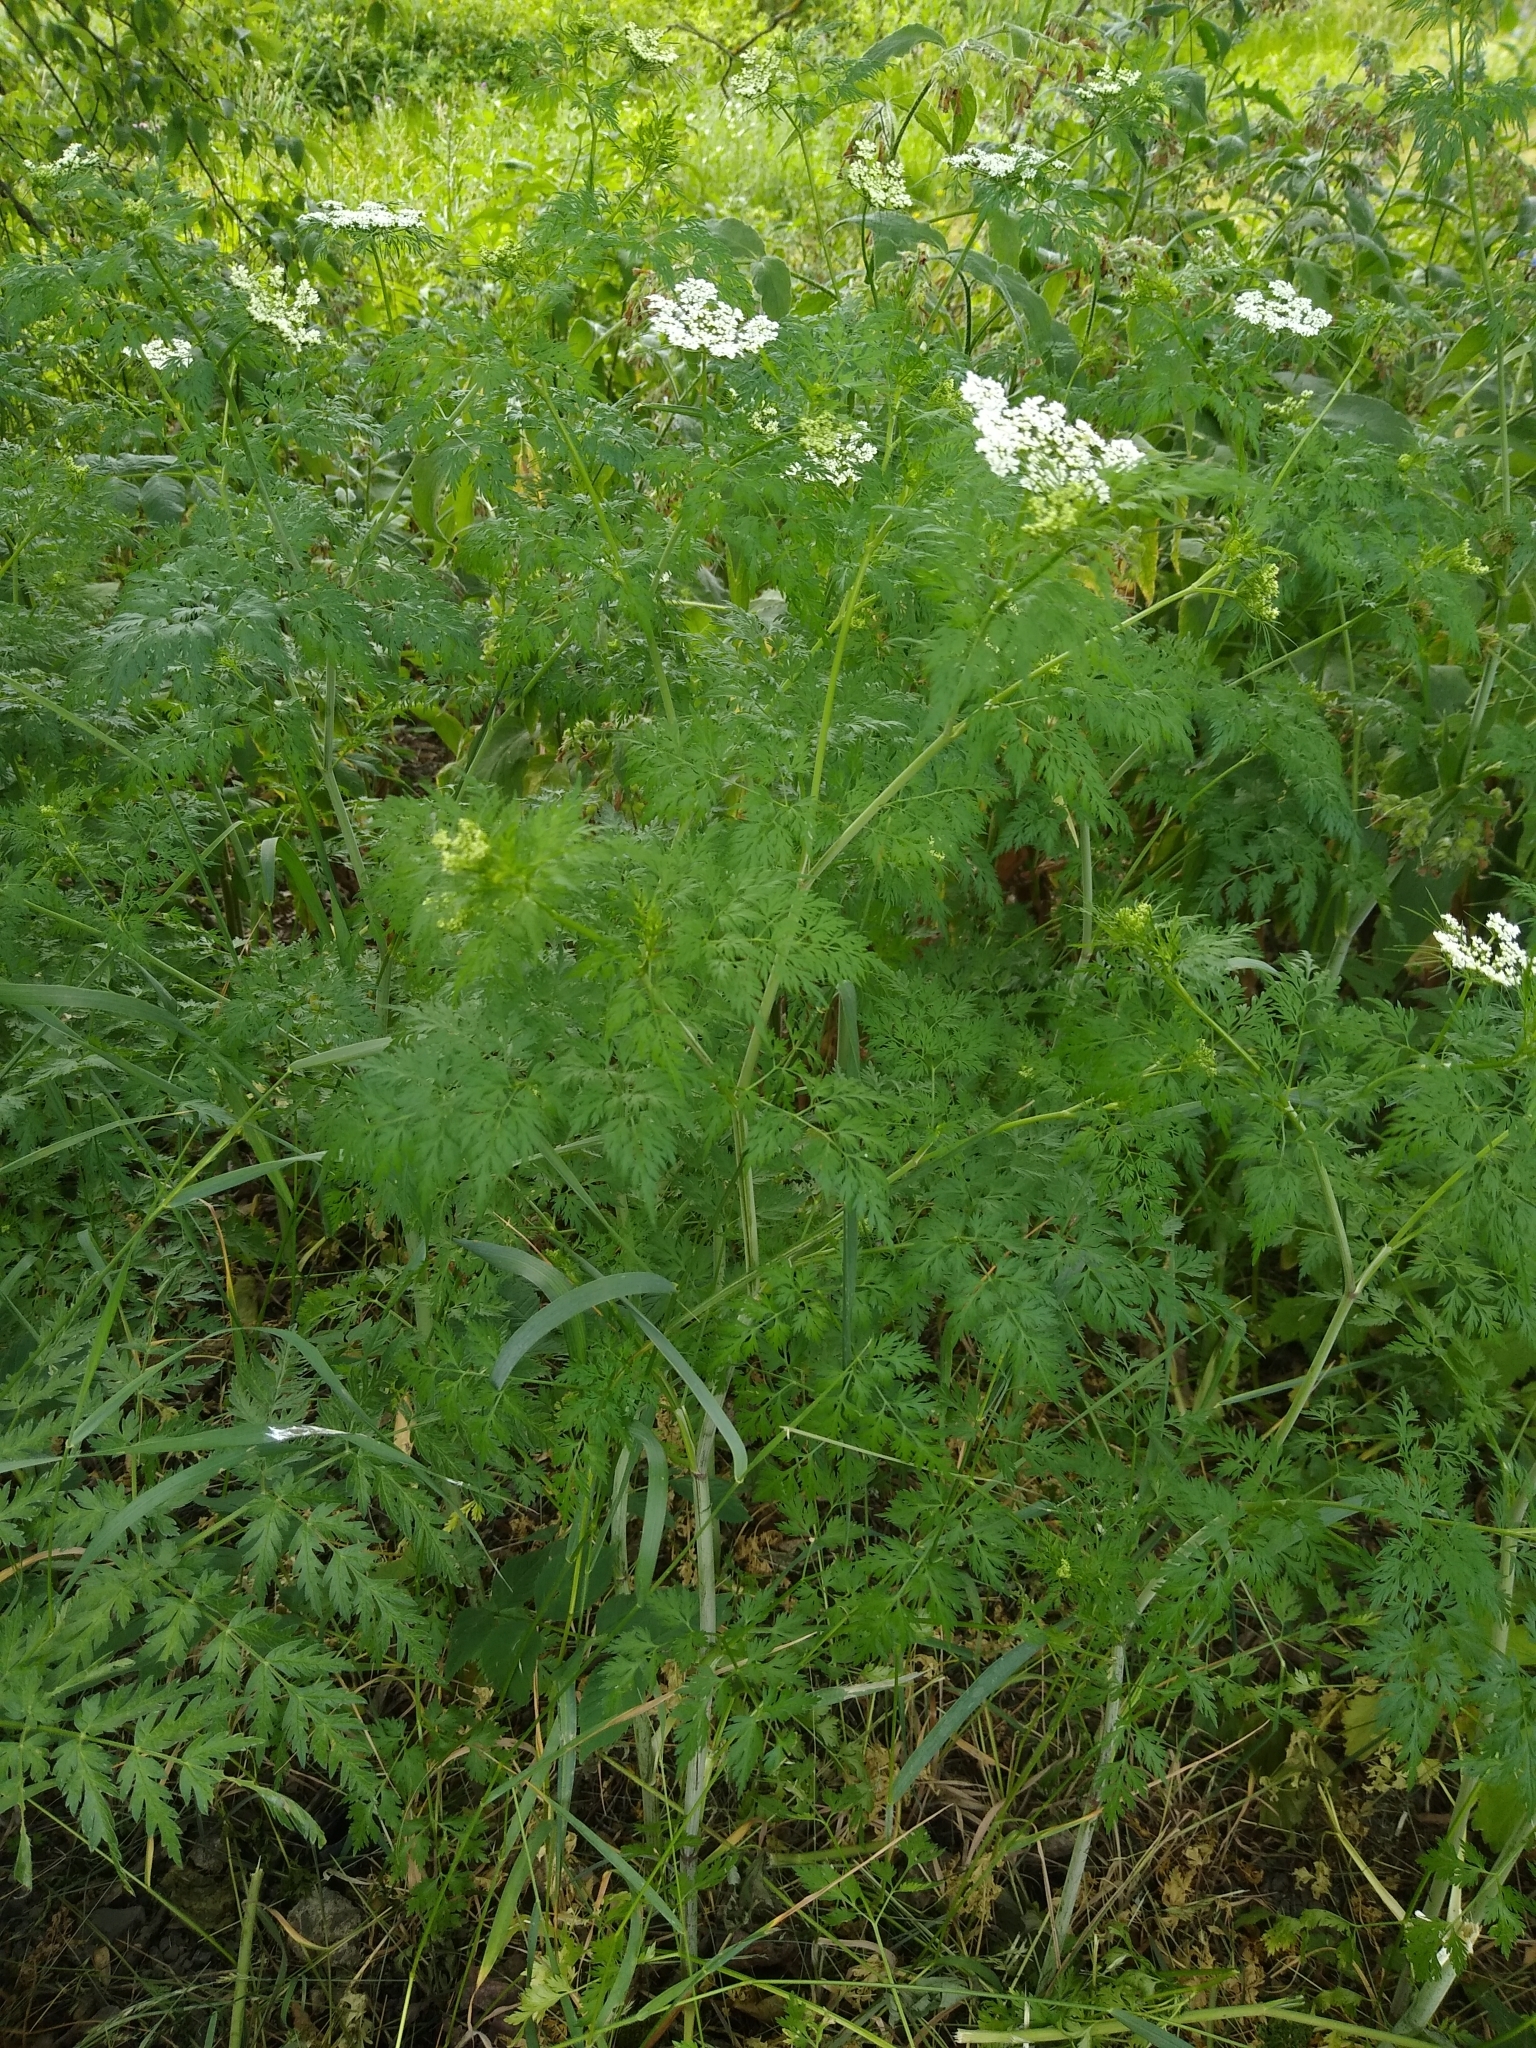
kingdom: Plantae
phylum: Tracheophyta
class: Magnoliopsida
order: Apiales
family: Apiaceae
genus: Aethusa
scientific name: Aethusa cynapium
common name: Fool's parsley
